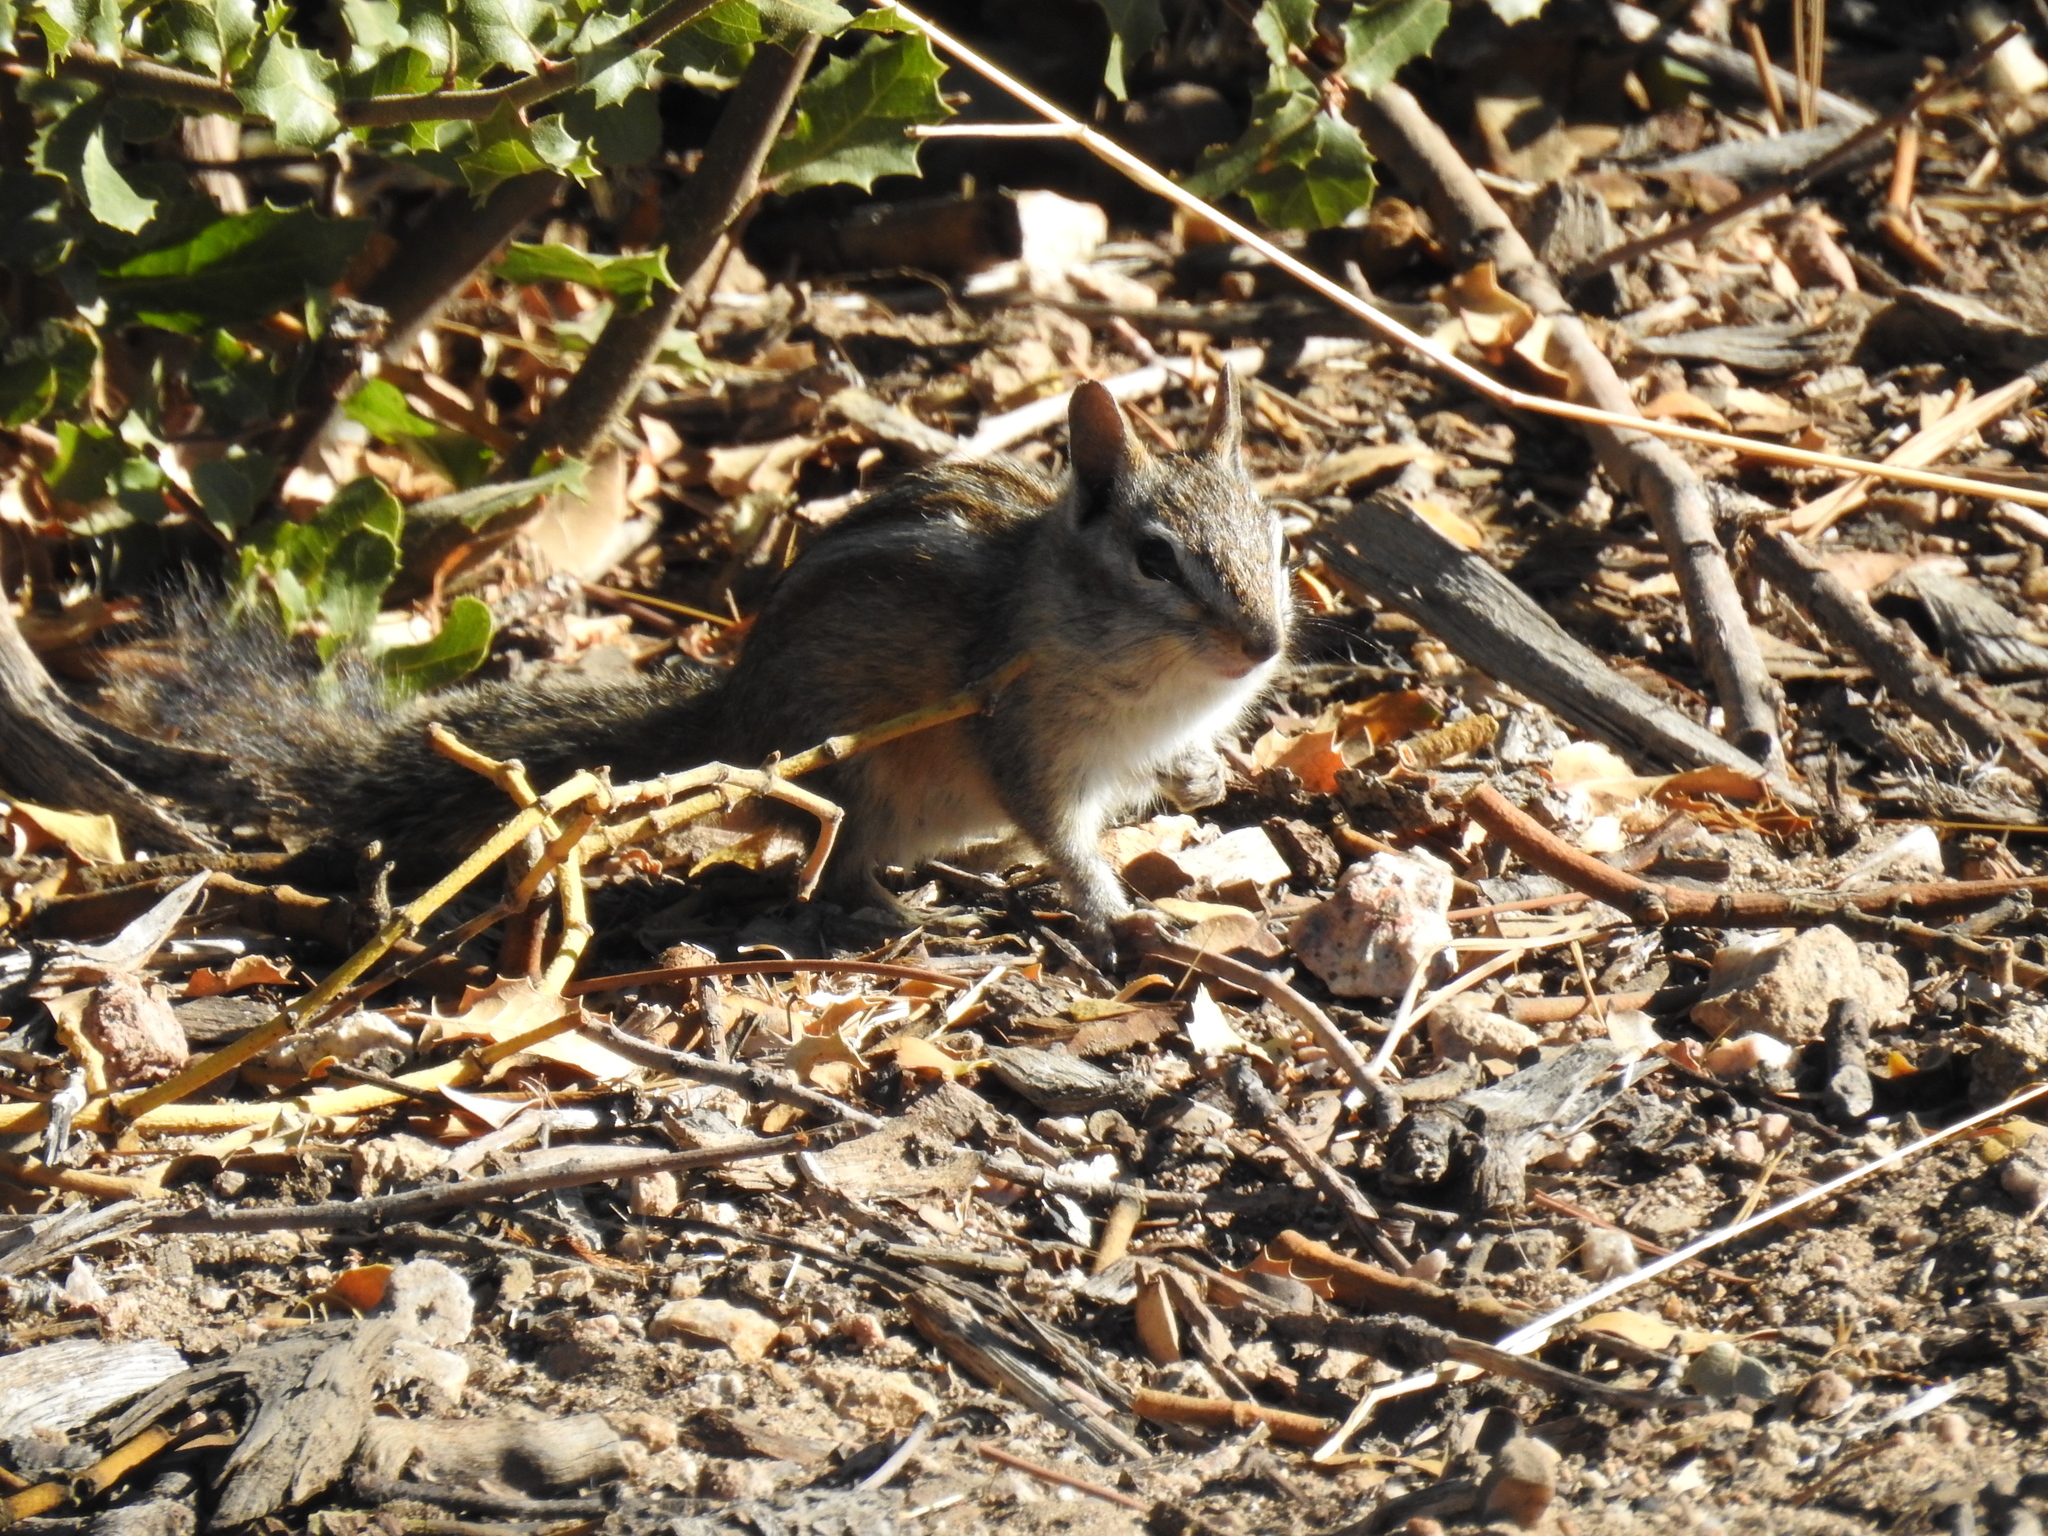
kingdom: Animalia
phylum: Chordata
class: Mammalia
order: Rodentia
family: Sciuridae
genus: Tamias
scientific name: Tamias merriami
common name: Merriam's chipmunk
